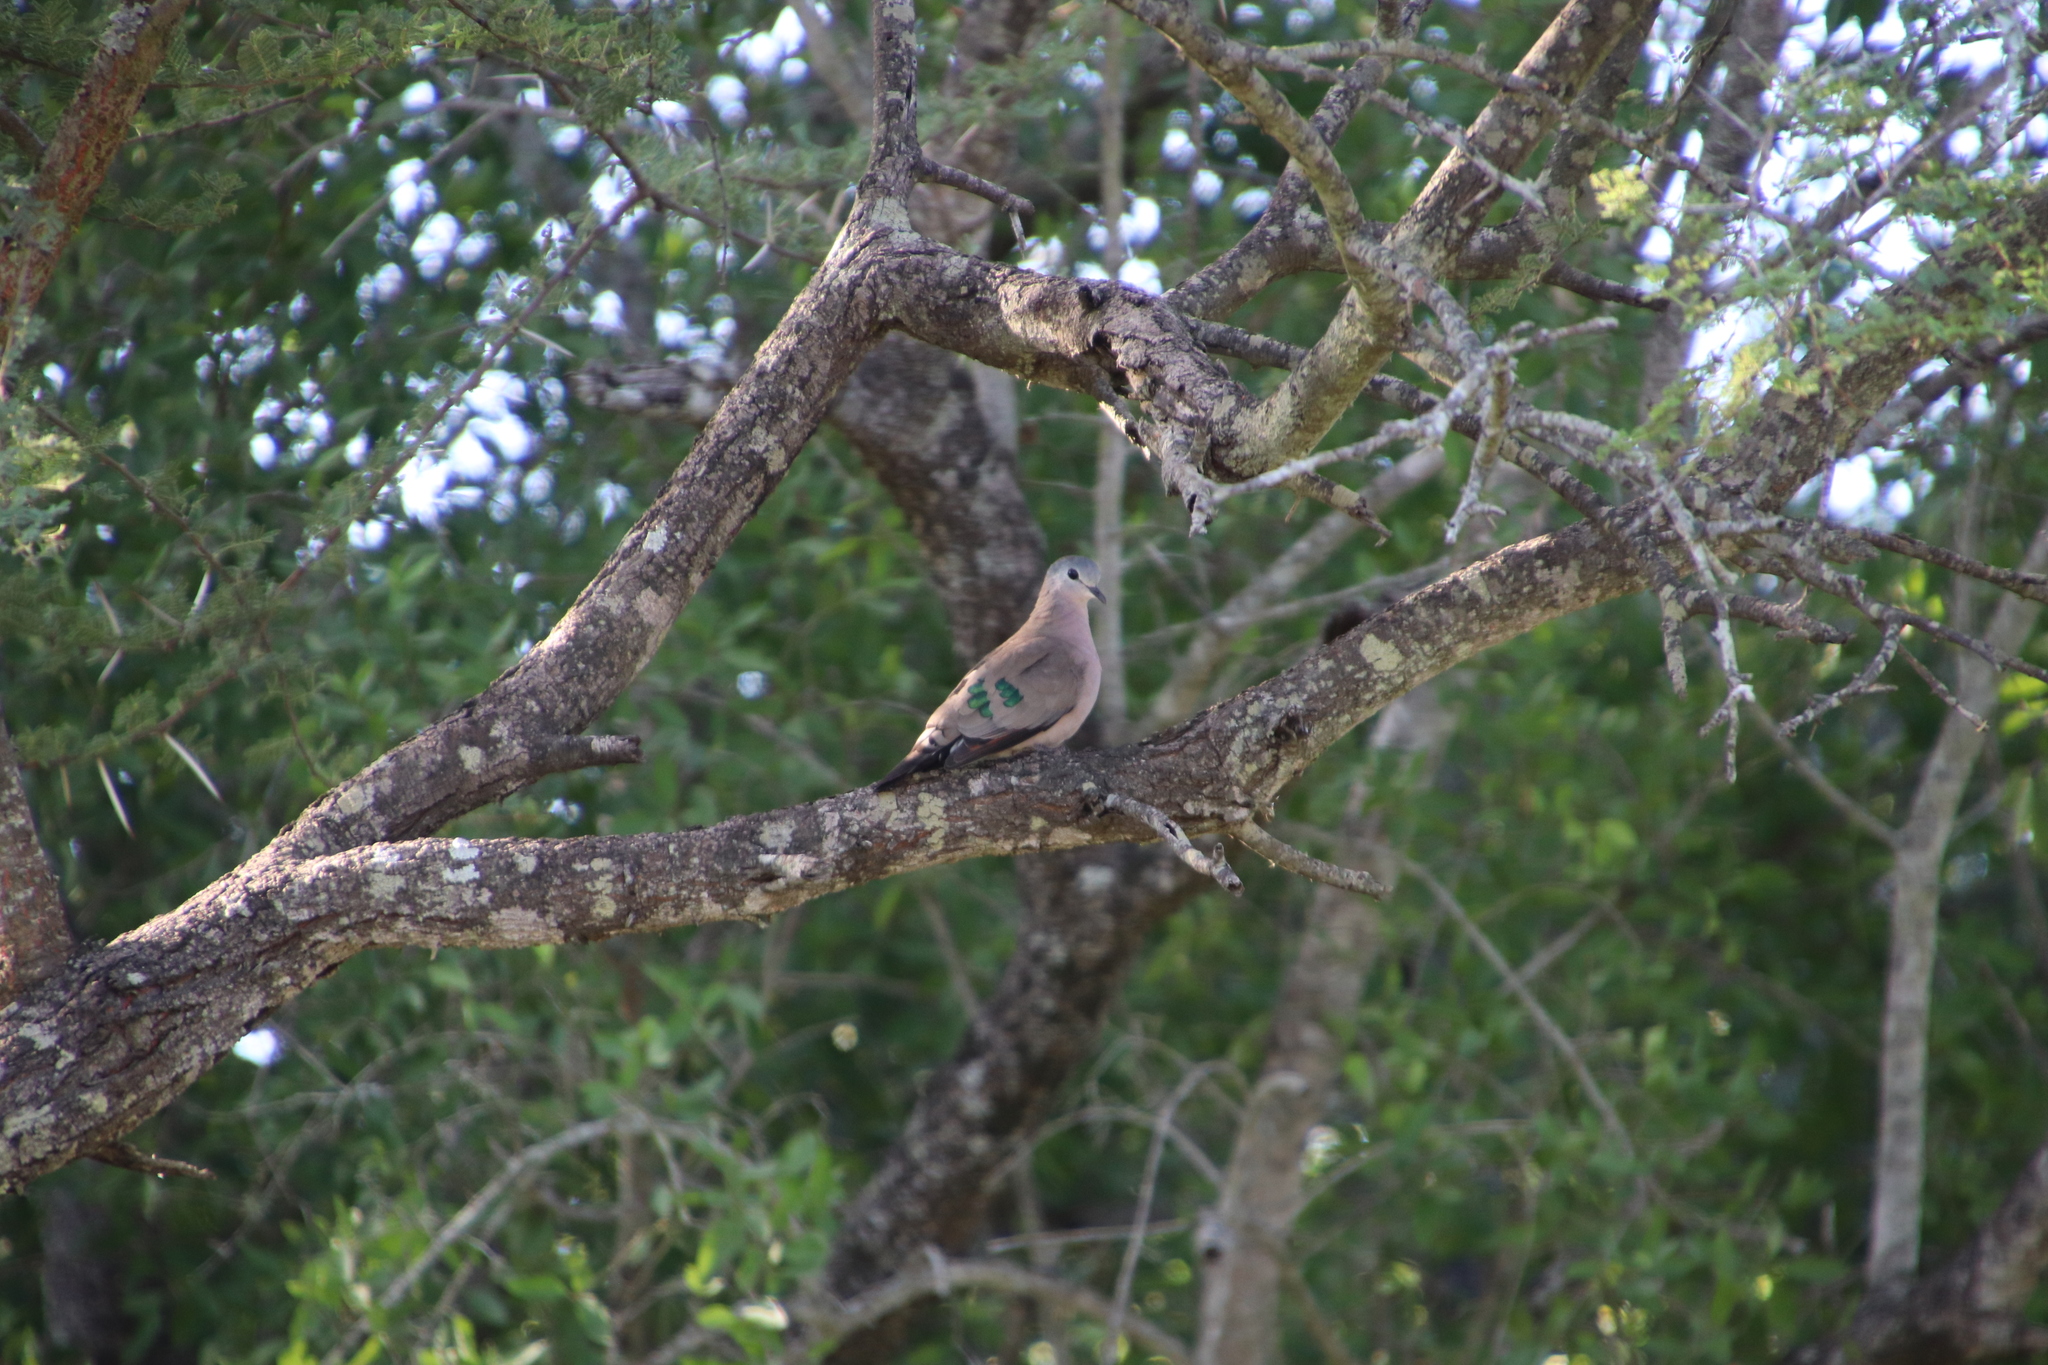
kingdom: Animalia
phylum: Chordata
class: Aves
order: Columbiformes
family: Columbidae
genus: Turtur
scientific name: Turtur chalcospilos
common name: Emerald-spotted wood dove
